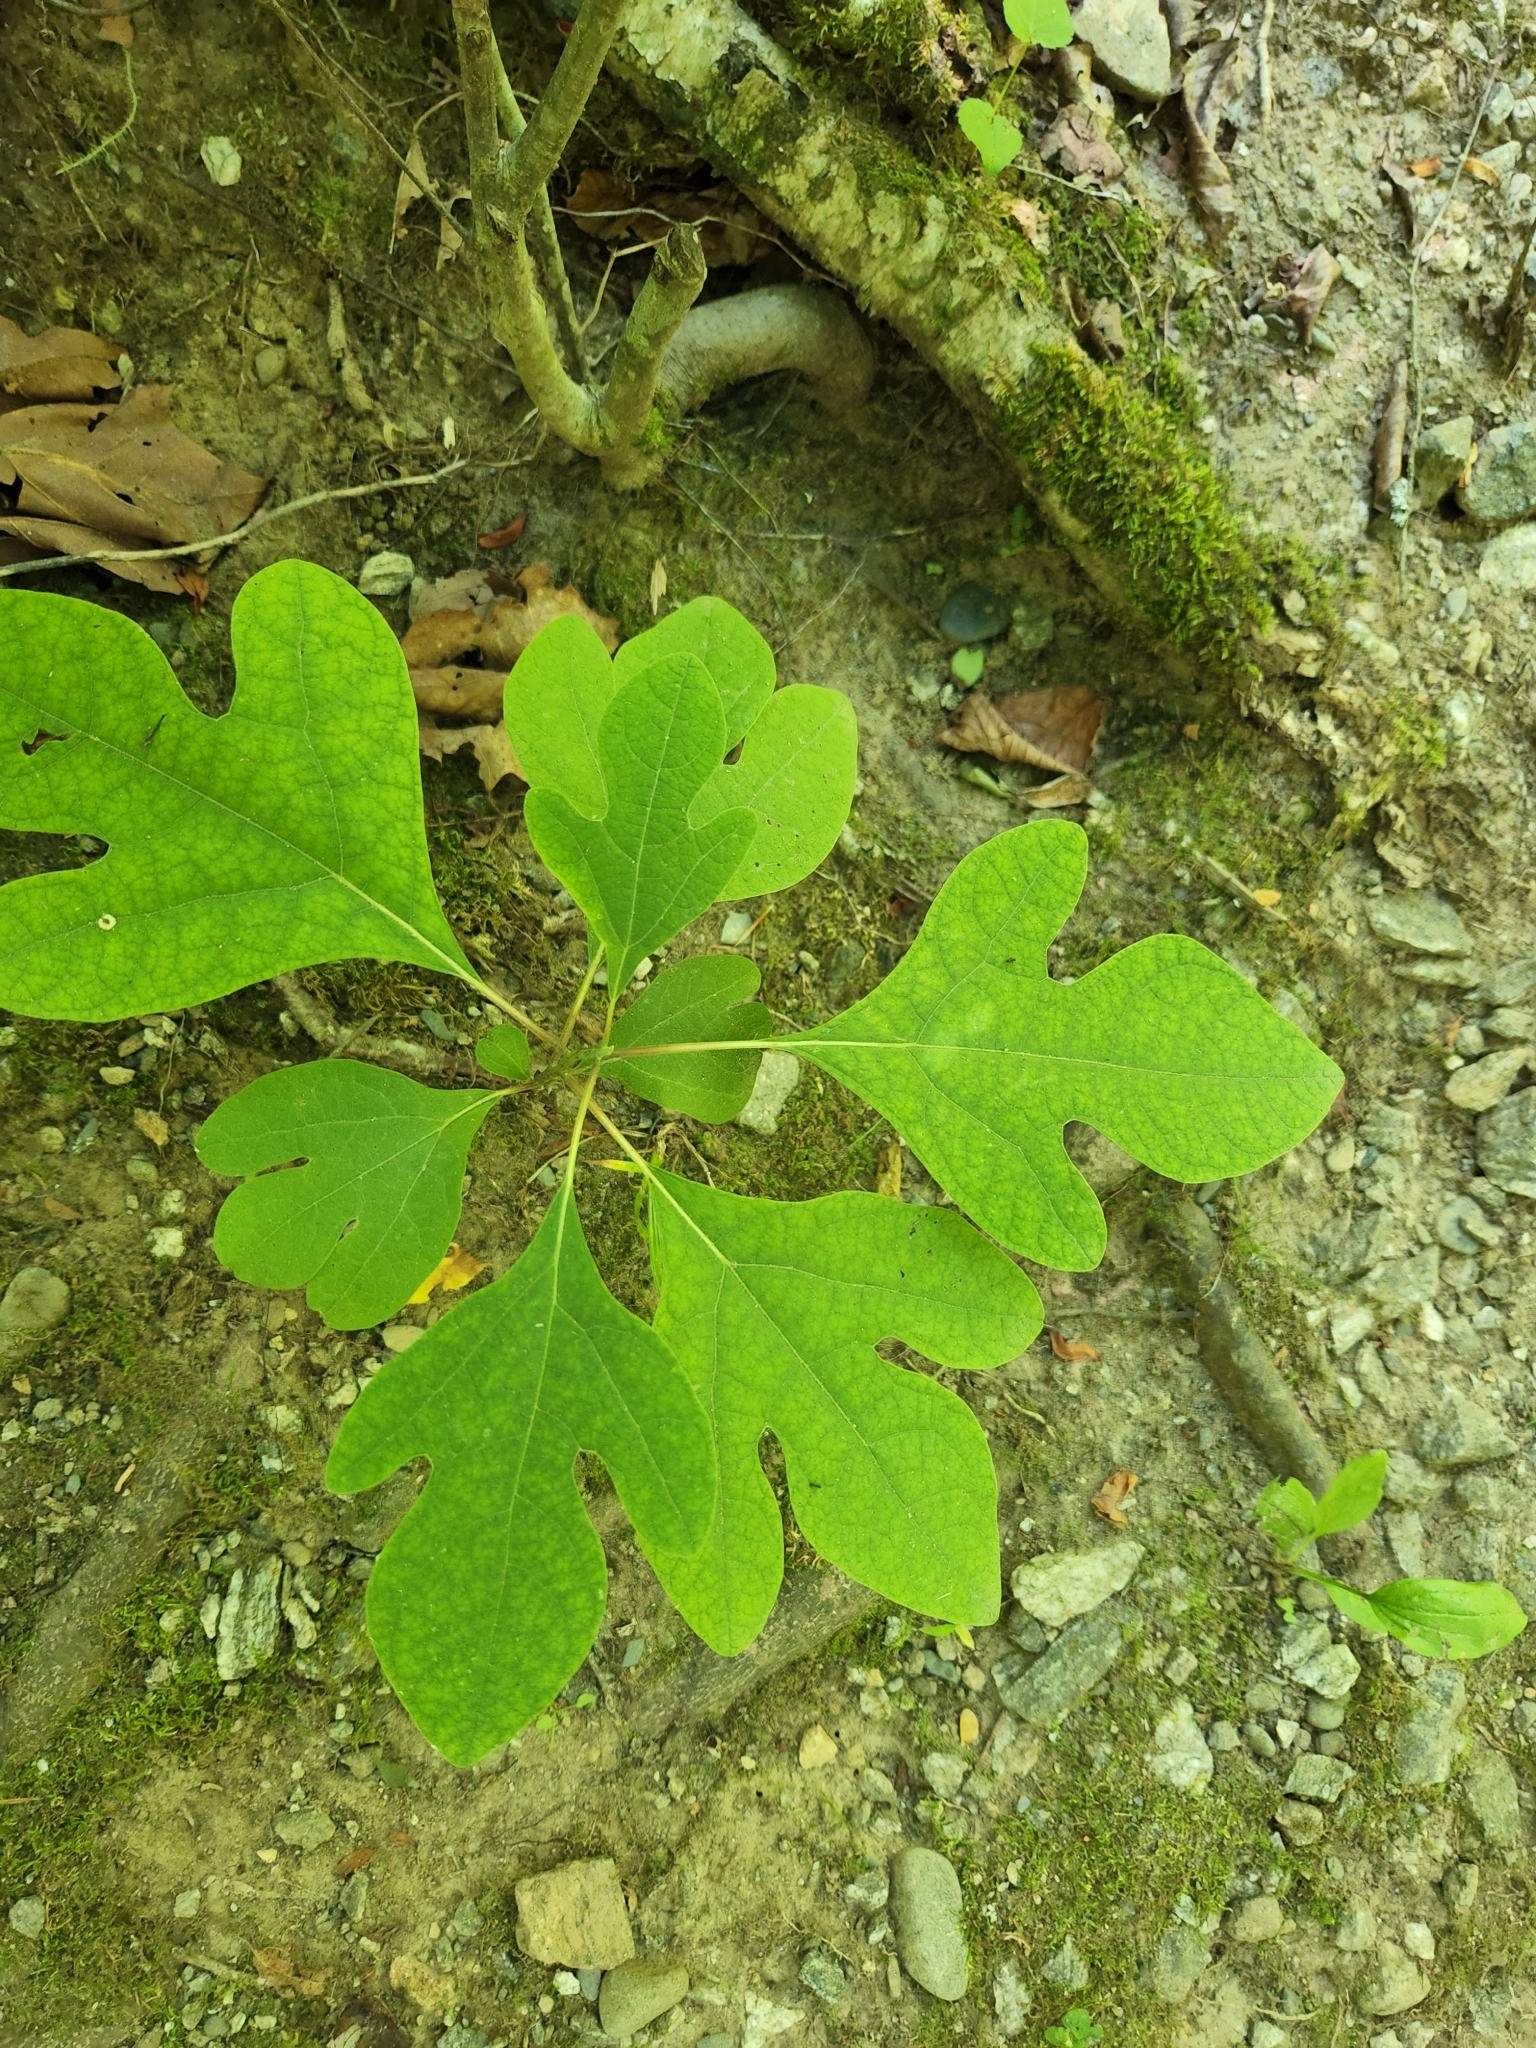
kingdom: Plantae
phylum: Tracheophyta
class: Magnoliopsida
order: Laurales
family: Lauraceae
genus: Sassafras
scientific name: Sassafras albidum
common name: Sassafras
